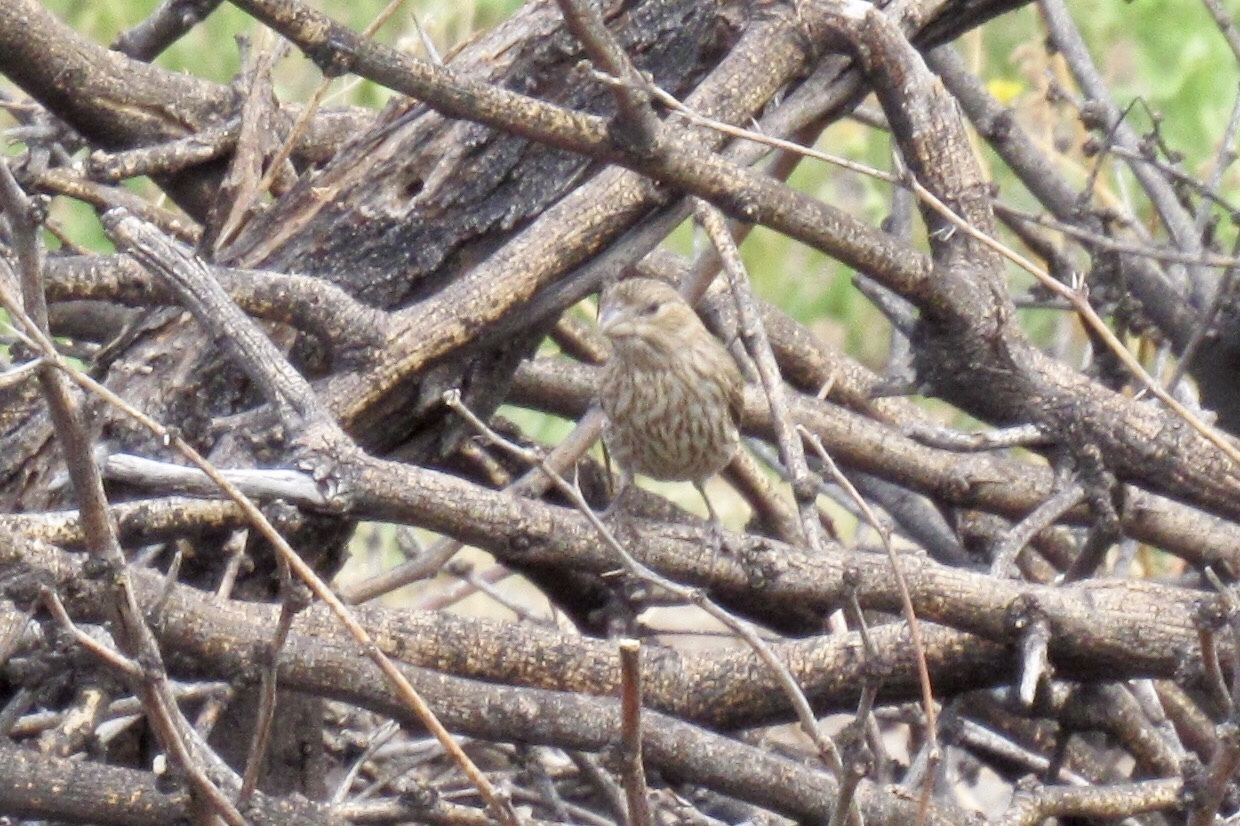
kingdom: Animalia
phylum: Chordata
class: Aves
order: Passeriformes
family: Fringillidae
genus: Haemorhous
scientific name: Haemorhous mexicanus
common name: House finch
